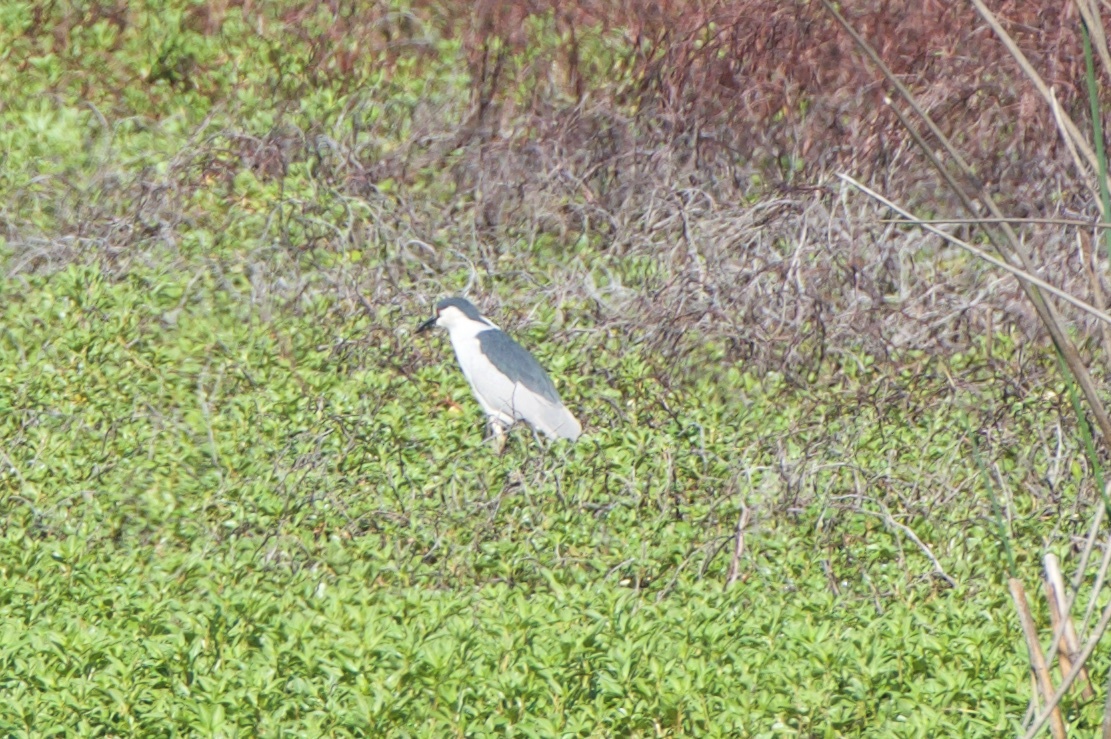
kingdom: Animalia
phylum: Chordata
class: Aves
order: Pelecaniformes
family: Ardeidae
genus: Nycticorax
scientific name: Nycticorax nycticorax
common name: Black-crowned night heron
